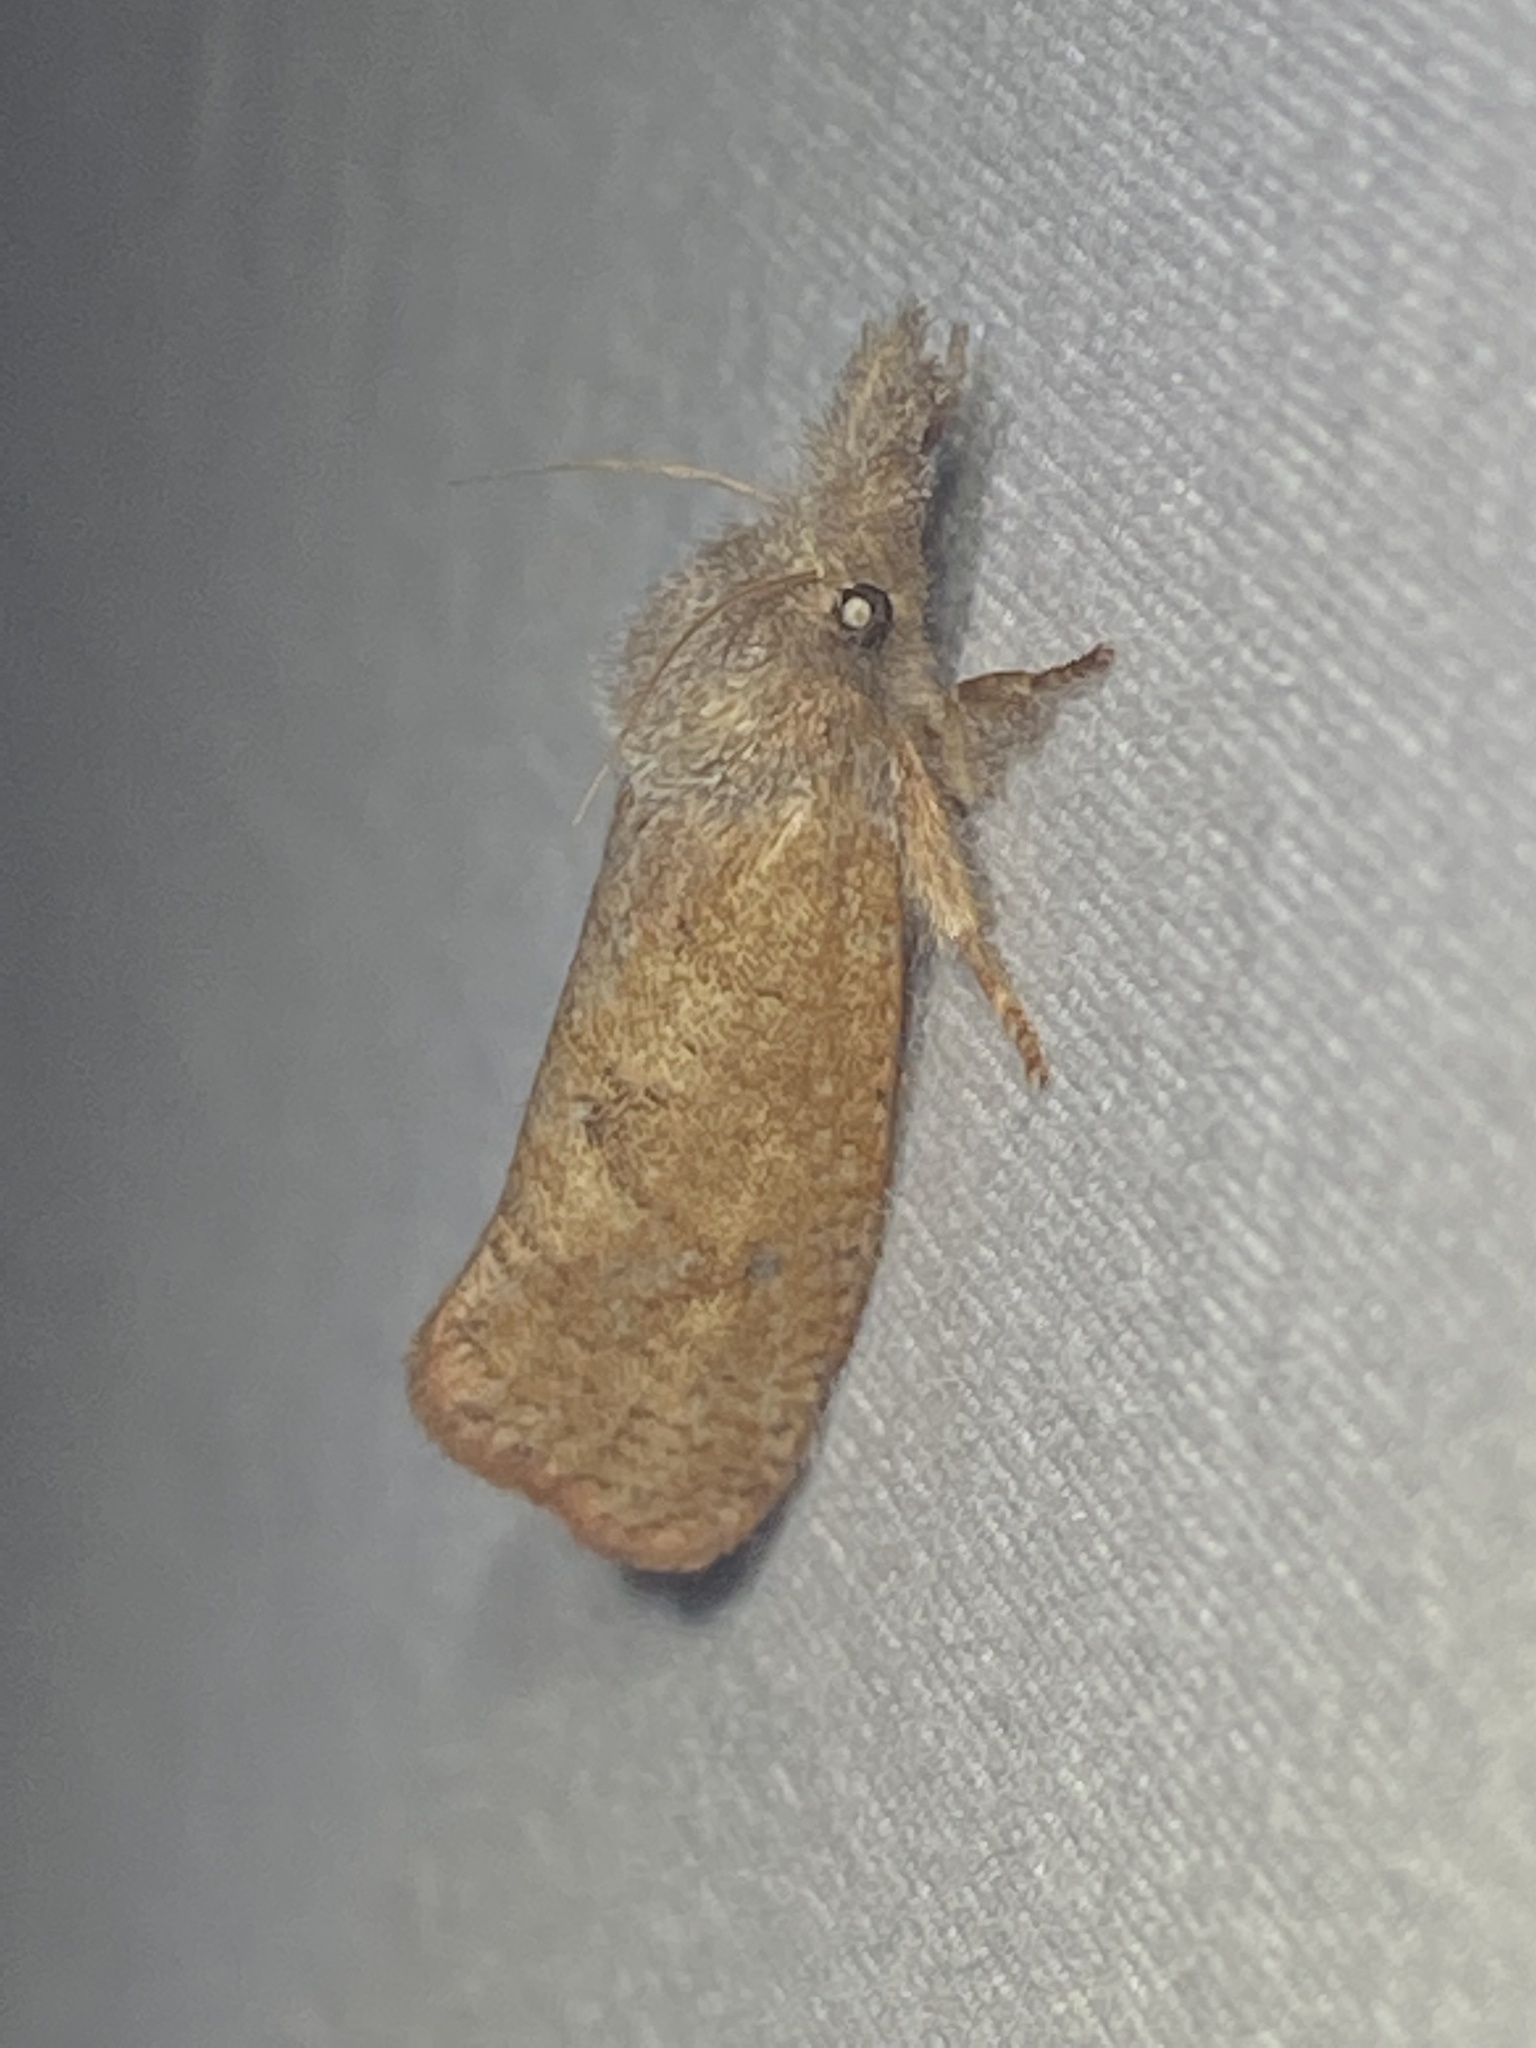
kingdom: Animalia
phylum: Arthropoda
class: Insecta
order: Lepidoptera
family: Tineidae
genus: Acrolophus
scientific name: Acrolophus plumifrontella
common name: Eastern grass tubeworm moth
